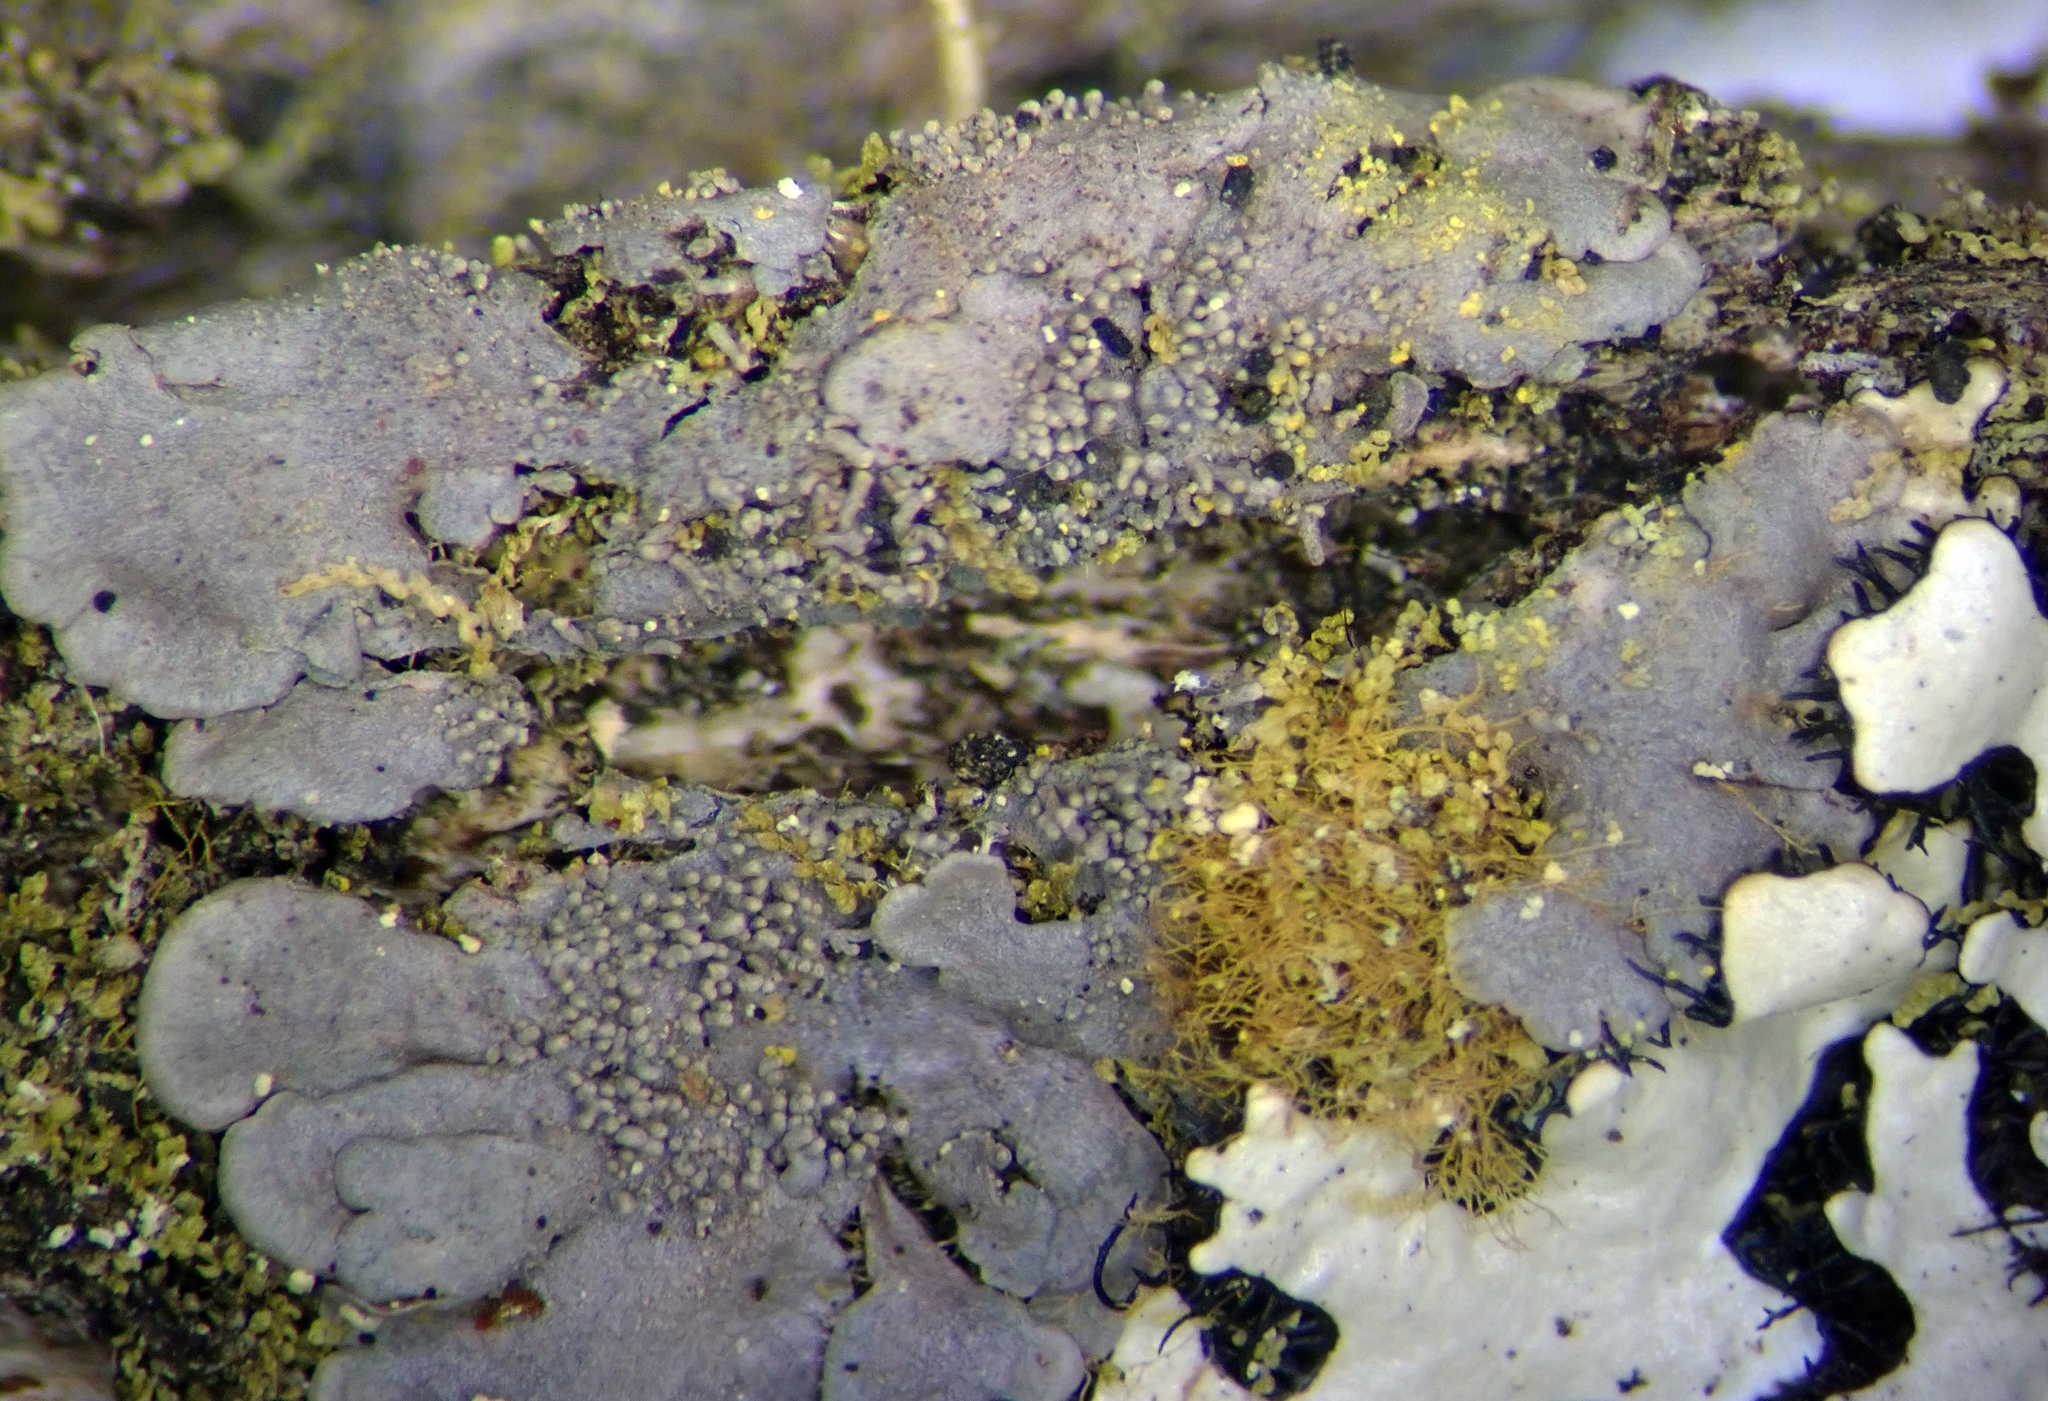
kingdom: Fungi
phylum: Ascomycota
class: Lecanoromycetes
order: Peltigerales
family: Coccocarpiaceae
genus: Coccocarpia
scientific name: Coccocarpia palmicola
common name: Salted shell lichen
